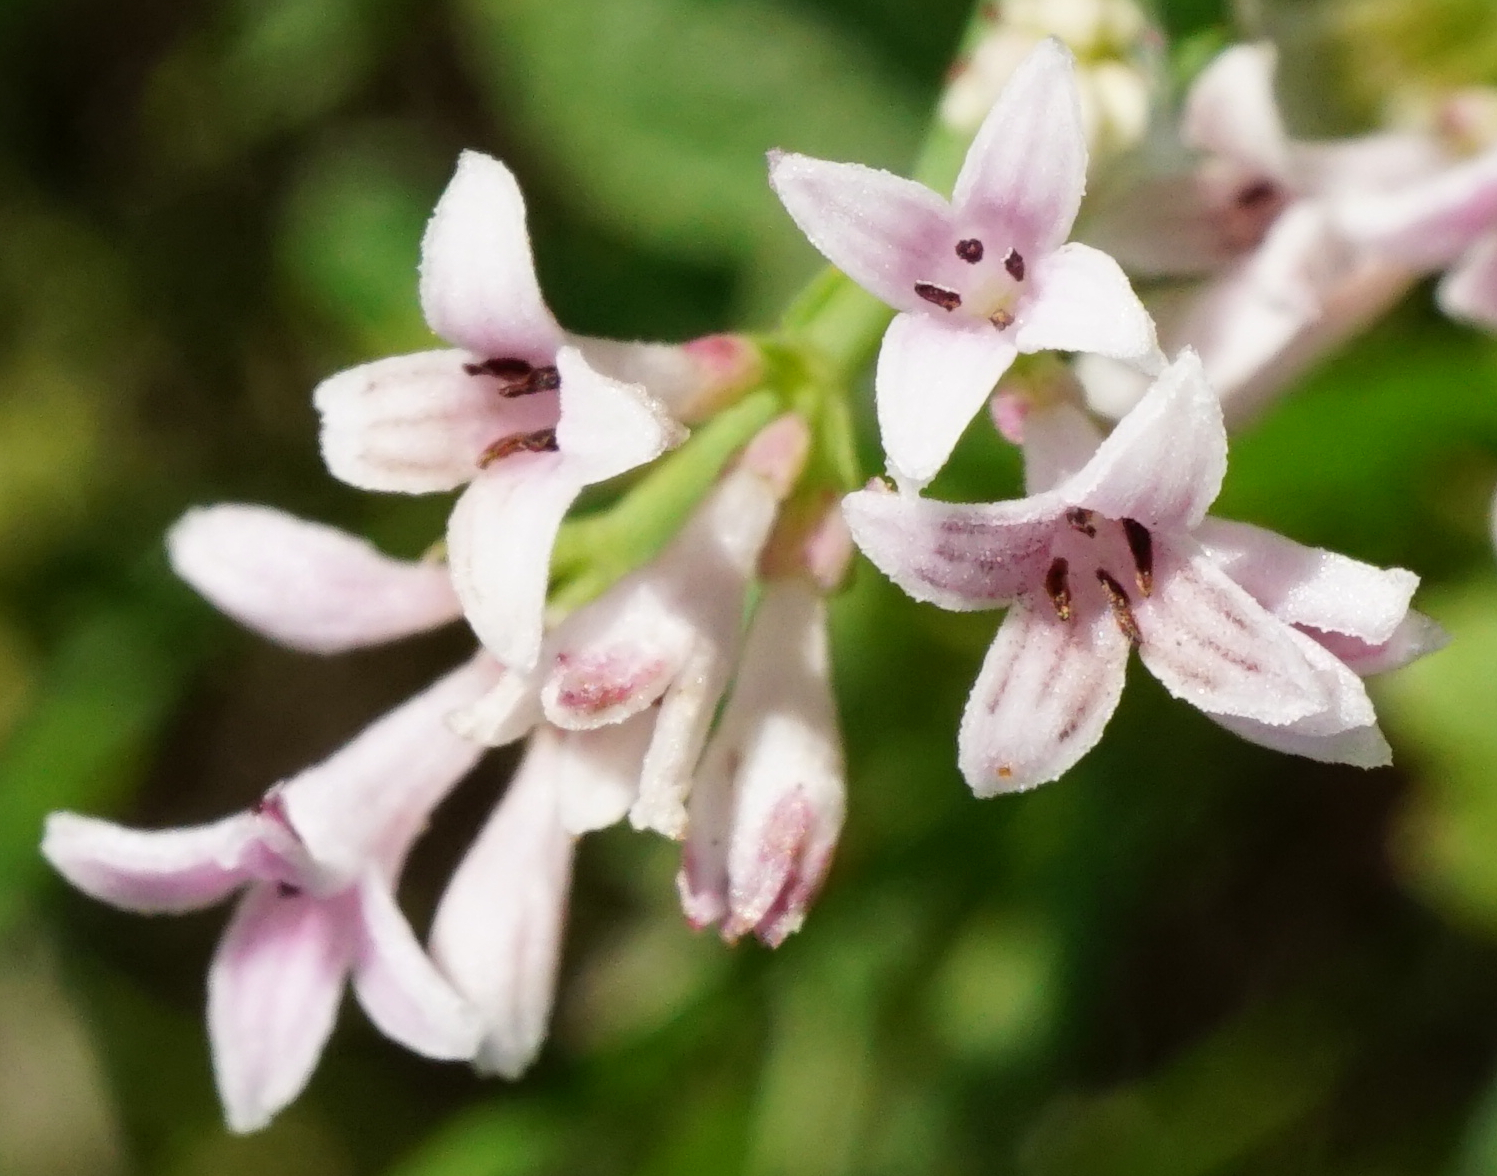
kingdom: Plantae
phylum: Tracheophyta
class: Magnoliopsida
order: Gentianales
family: Rubiaceae
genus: Cynanchica
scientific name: Cynanchica pyrenaica
